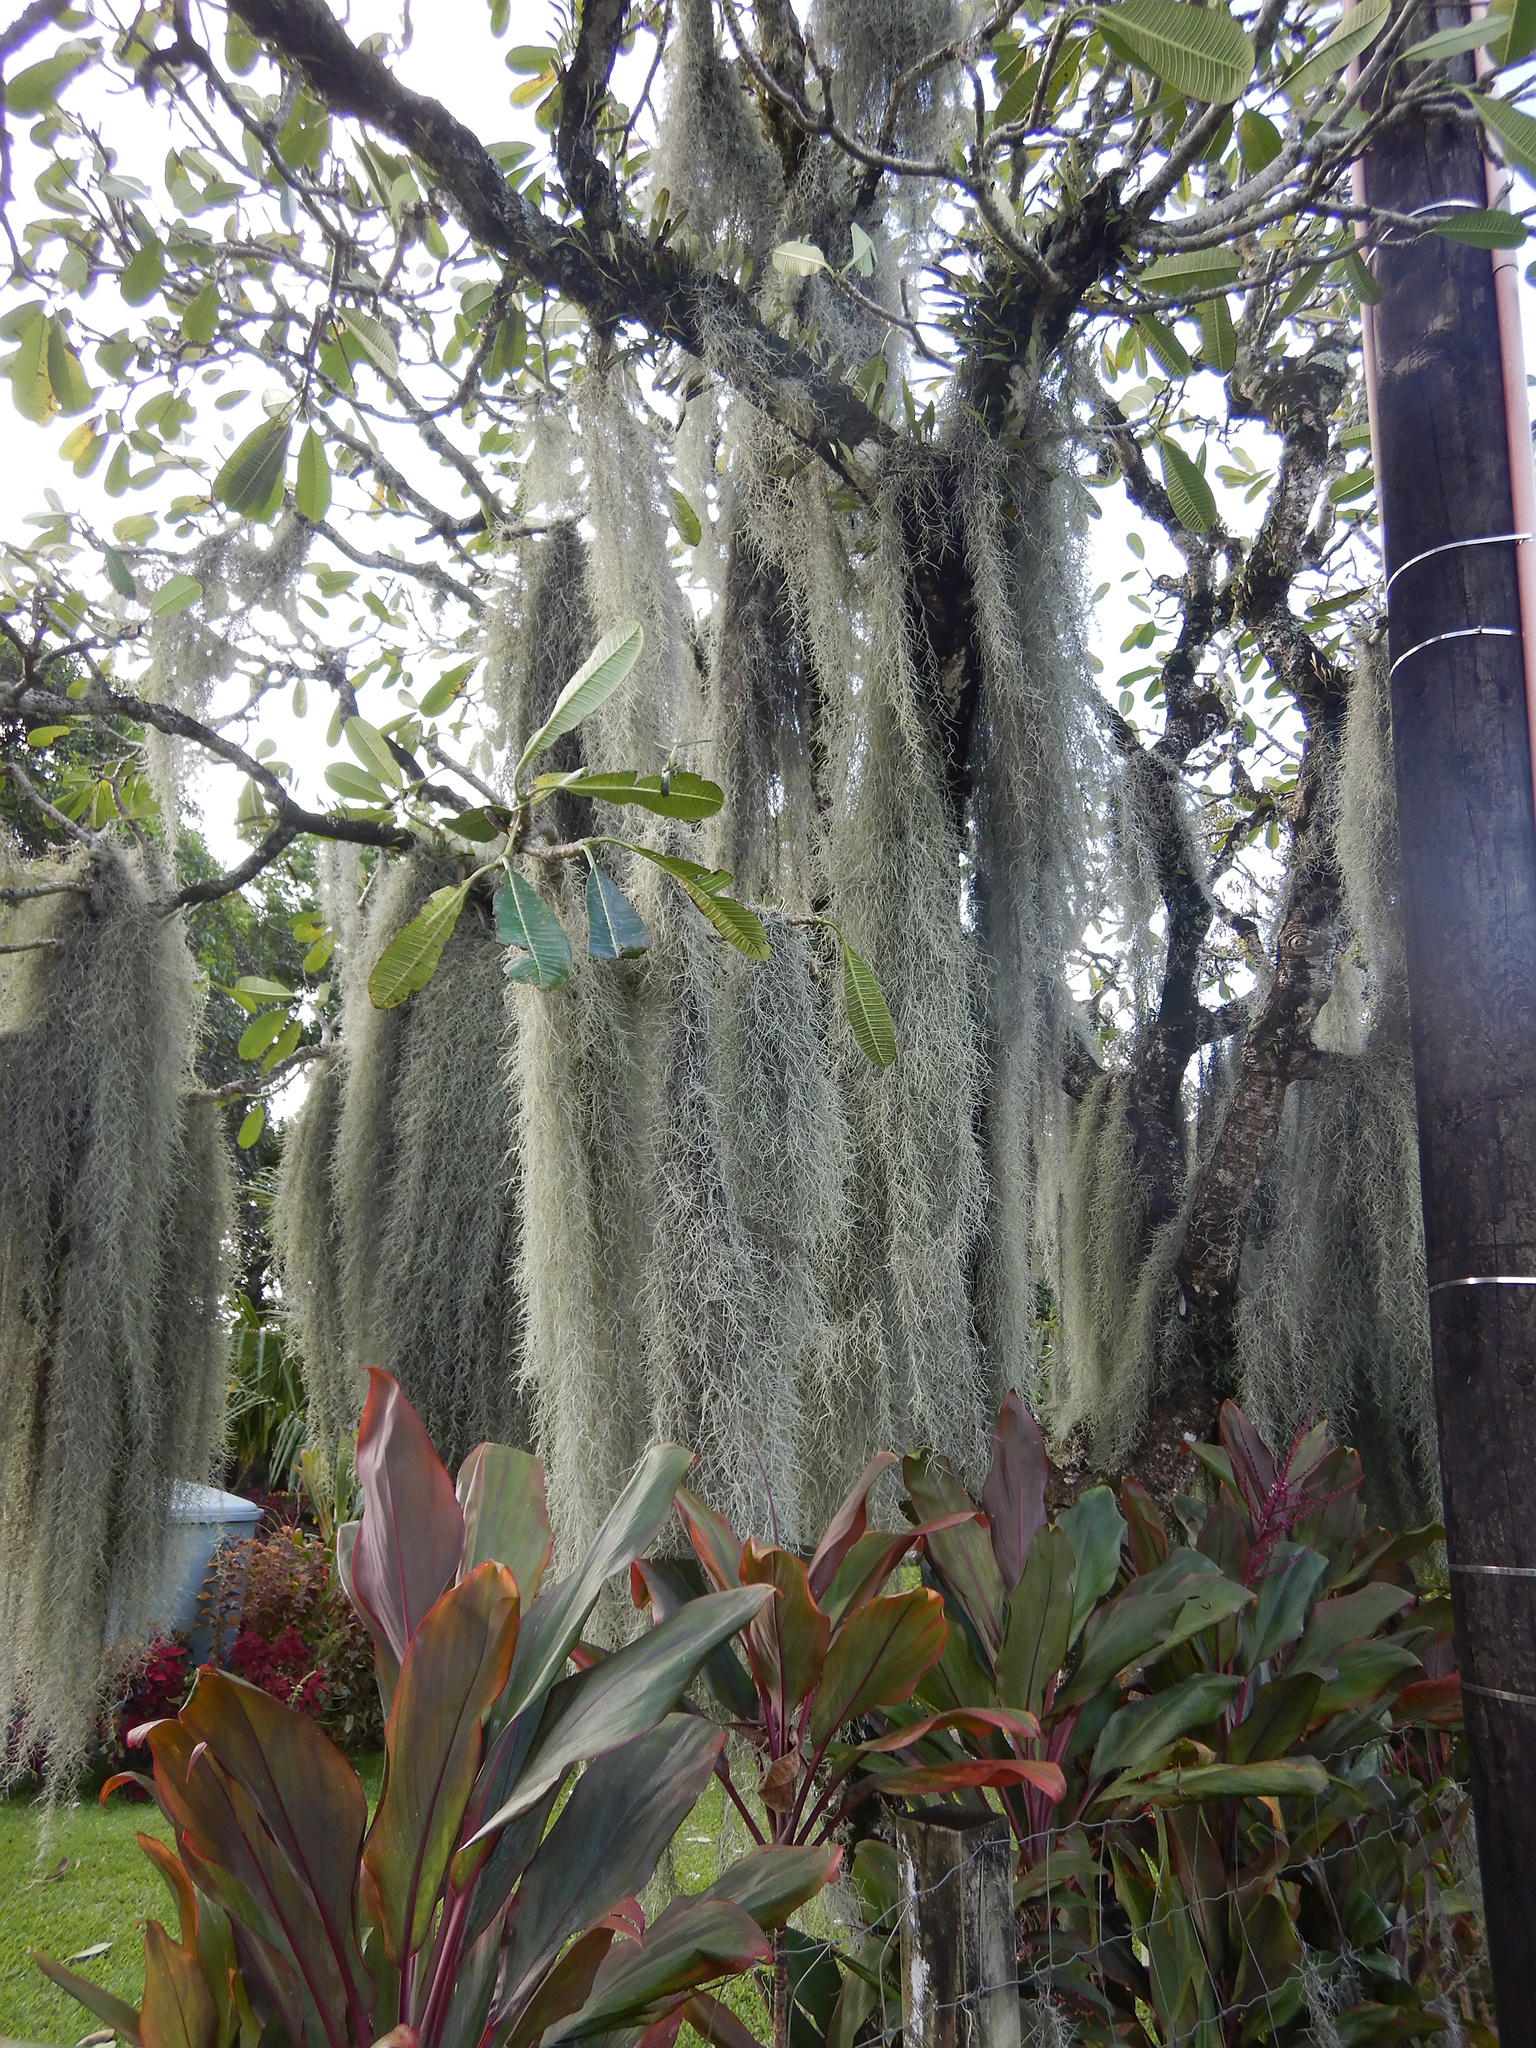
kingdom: Plantae
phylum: Tracheophyta
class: Liliopsida
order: Poales
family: Bromeliaceae
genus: Tillandsia
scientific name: Tillandsia usneoides
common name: Spanish moss
